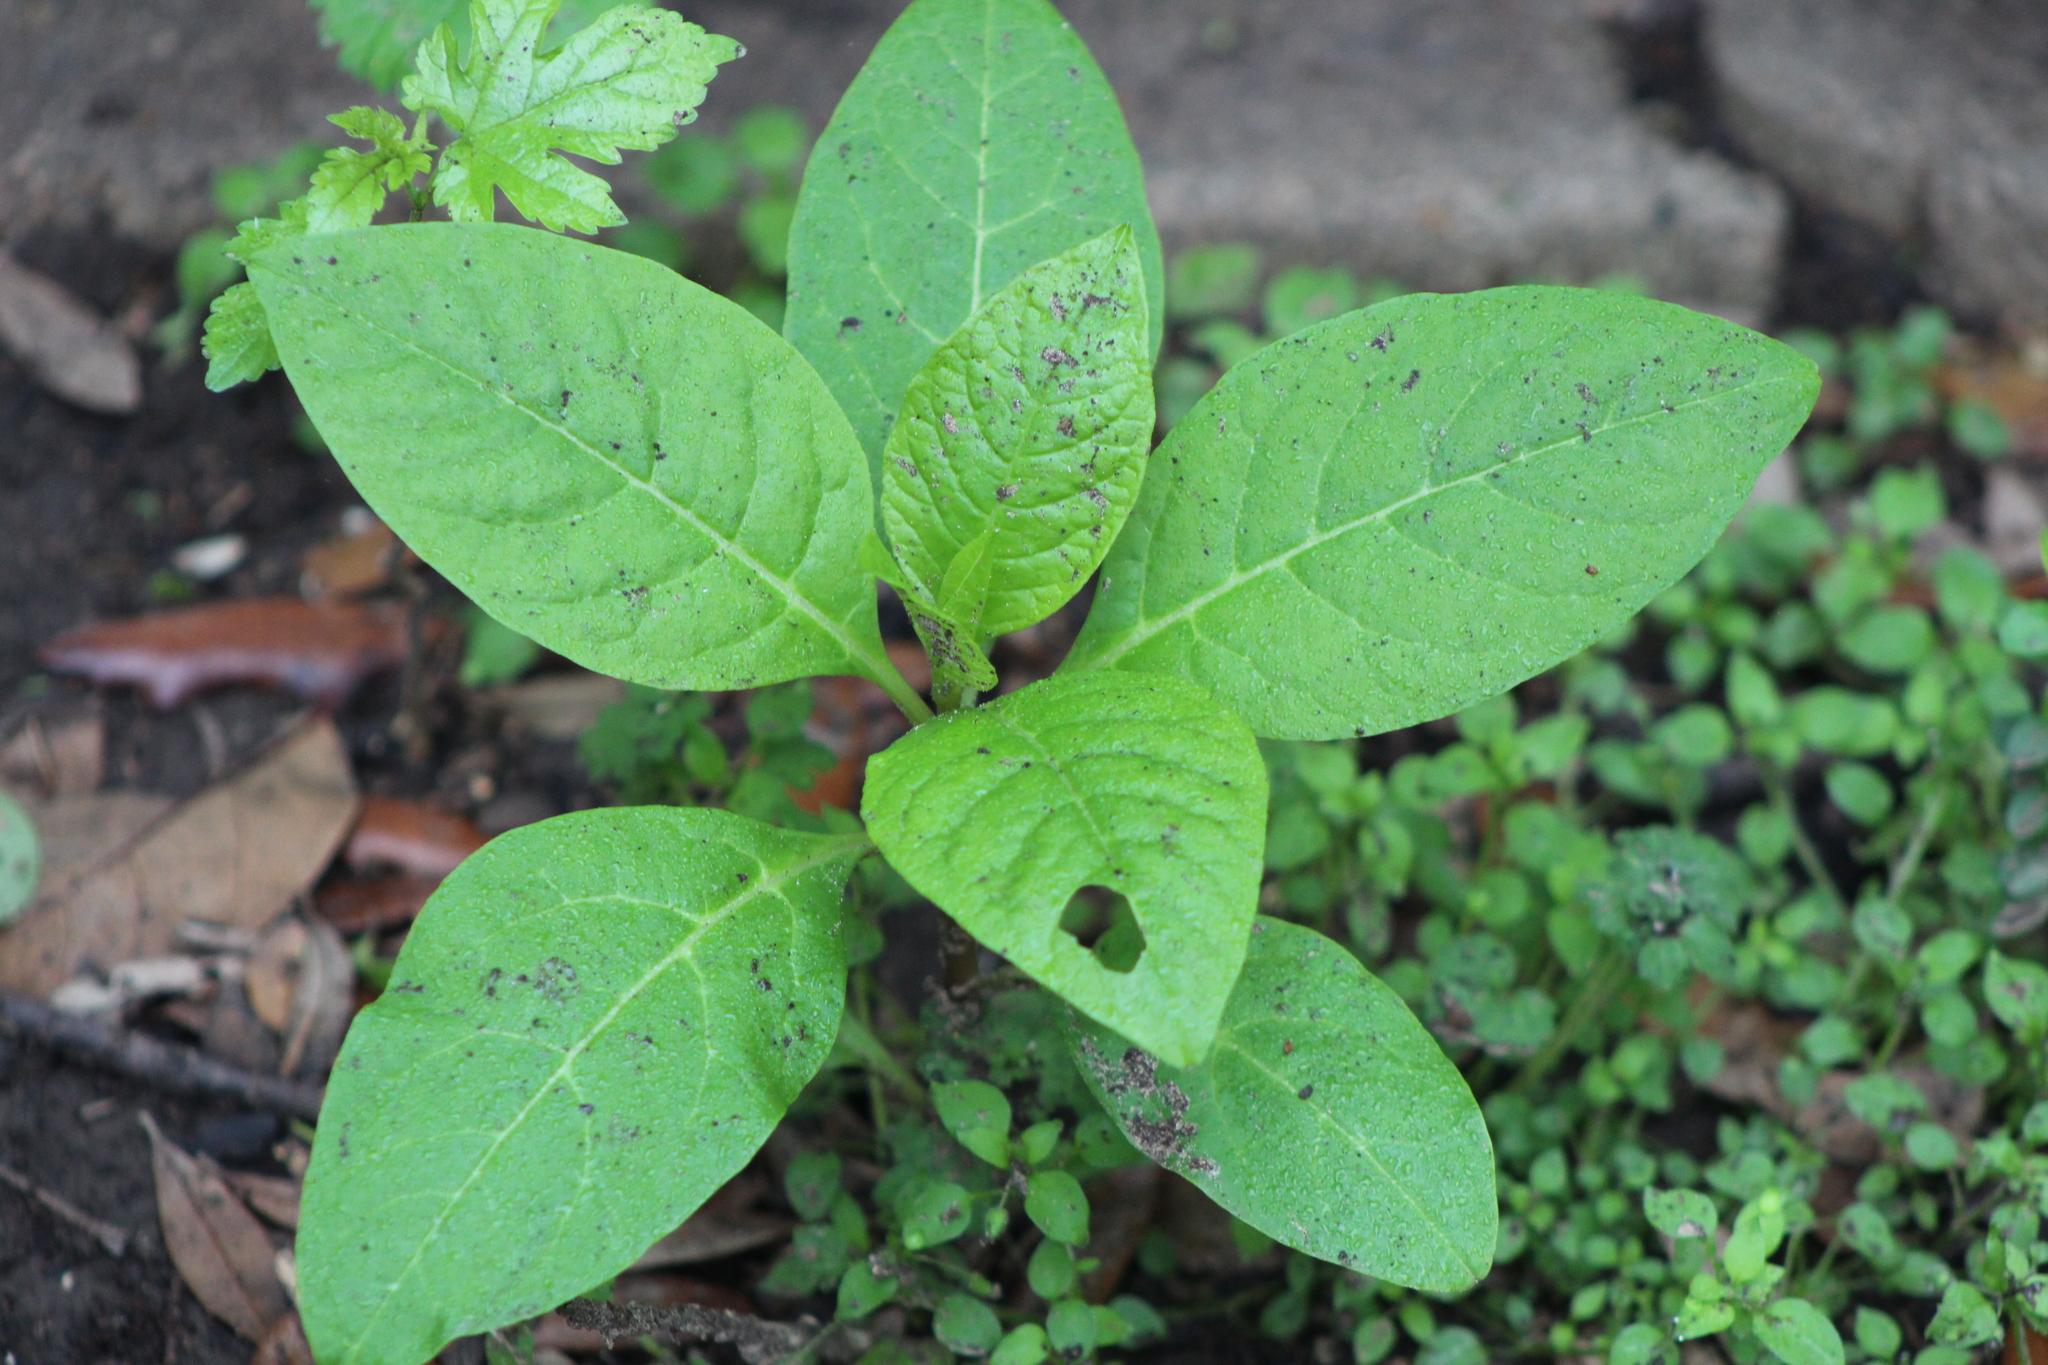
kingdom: Plantae
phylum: Tracheophyta
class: Magnoliopsida
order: Caryophyllales
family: Phytolaccaceae
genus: Phytolacca
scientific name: Phytolacca americana
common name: American pokeweed
